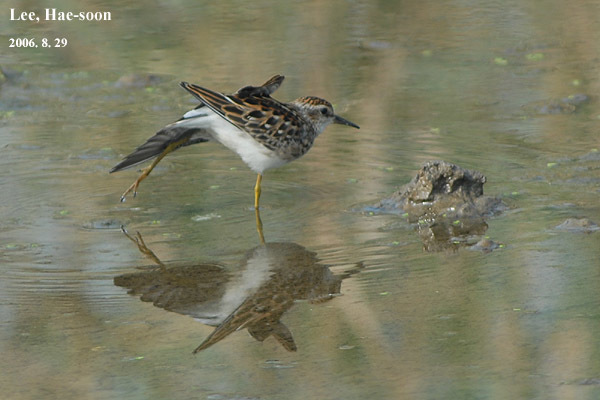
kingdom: Animalia
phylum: Chordata
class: Aves
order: Charadriiformes
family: Scolopacidae
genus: Calidris
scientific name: Calidris subminuta
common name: Long-toed stint
